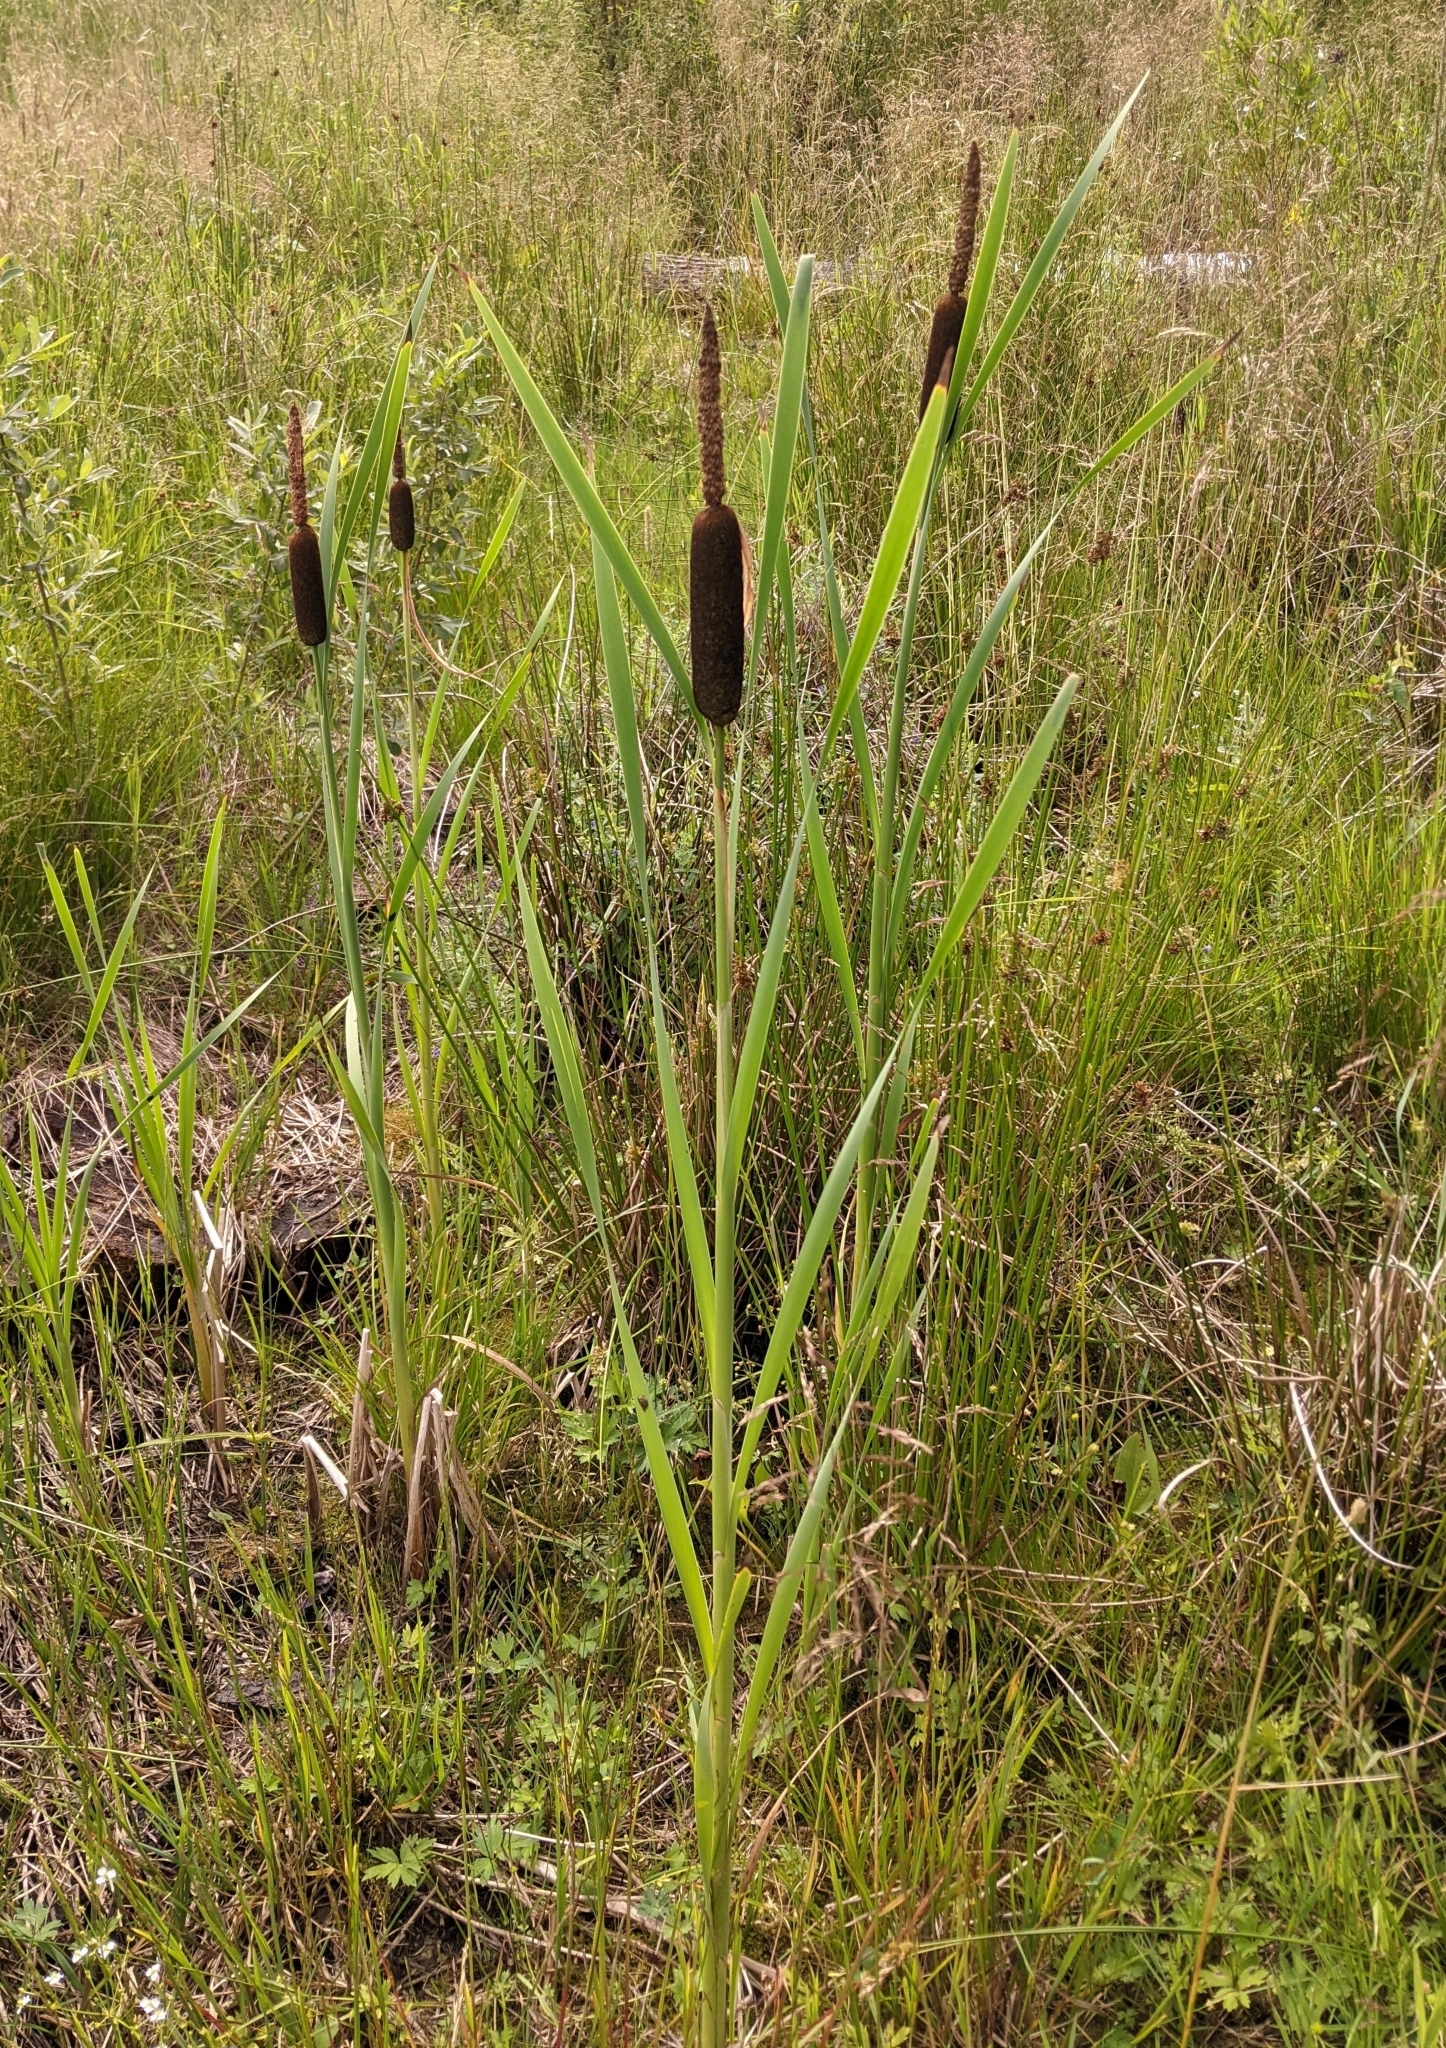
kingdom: Plantae
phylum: Tracheophyta
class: Liliopsida
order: Poales
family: Typhaceae
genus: Typha
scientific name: Typha latifolia
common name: Broadleaf cattail
